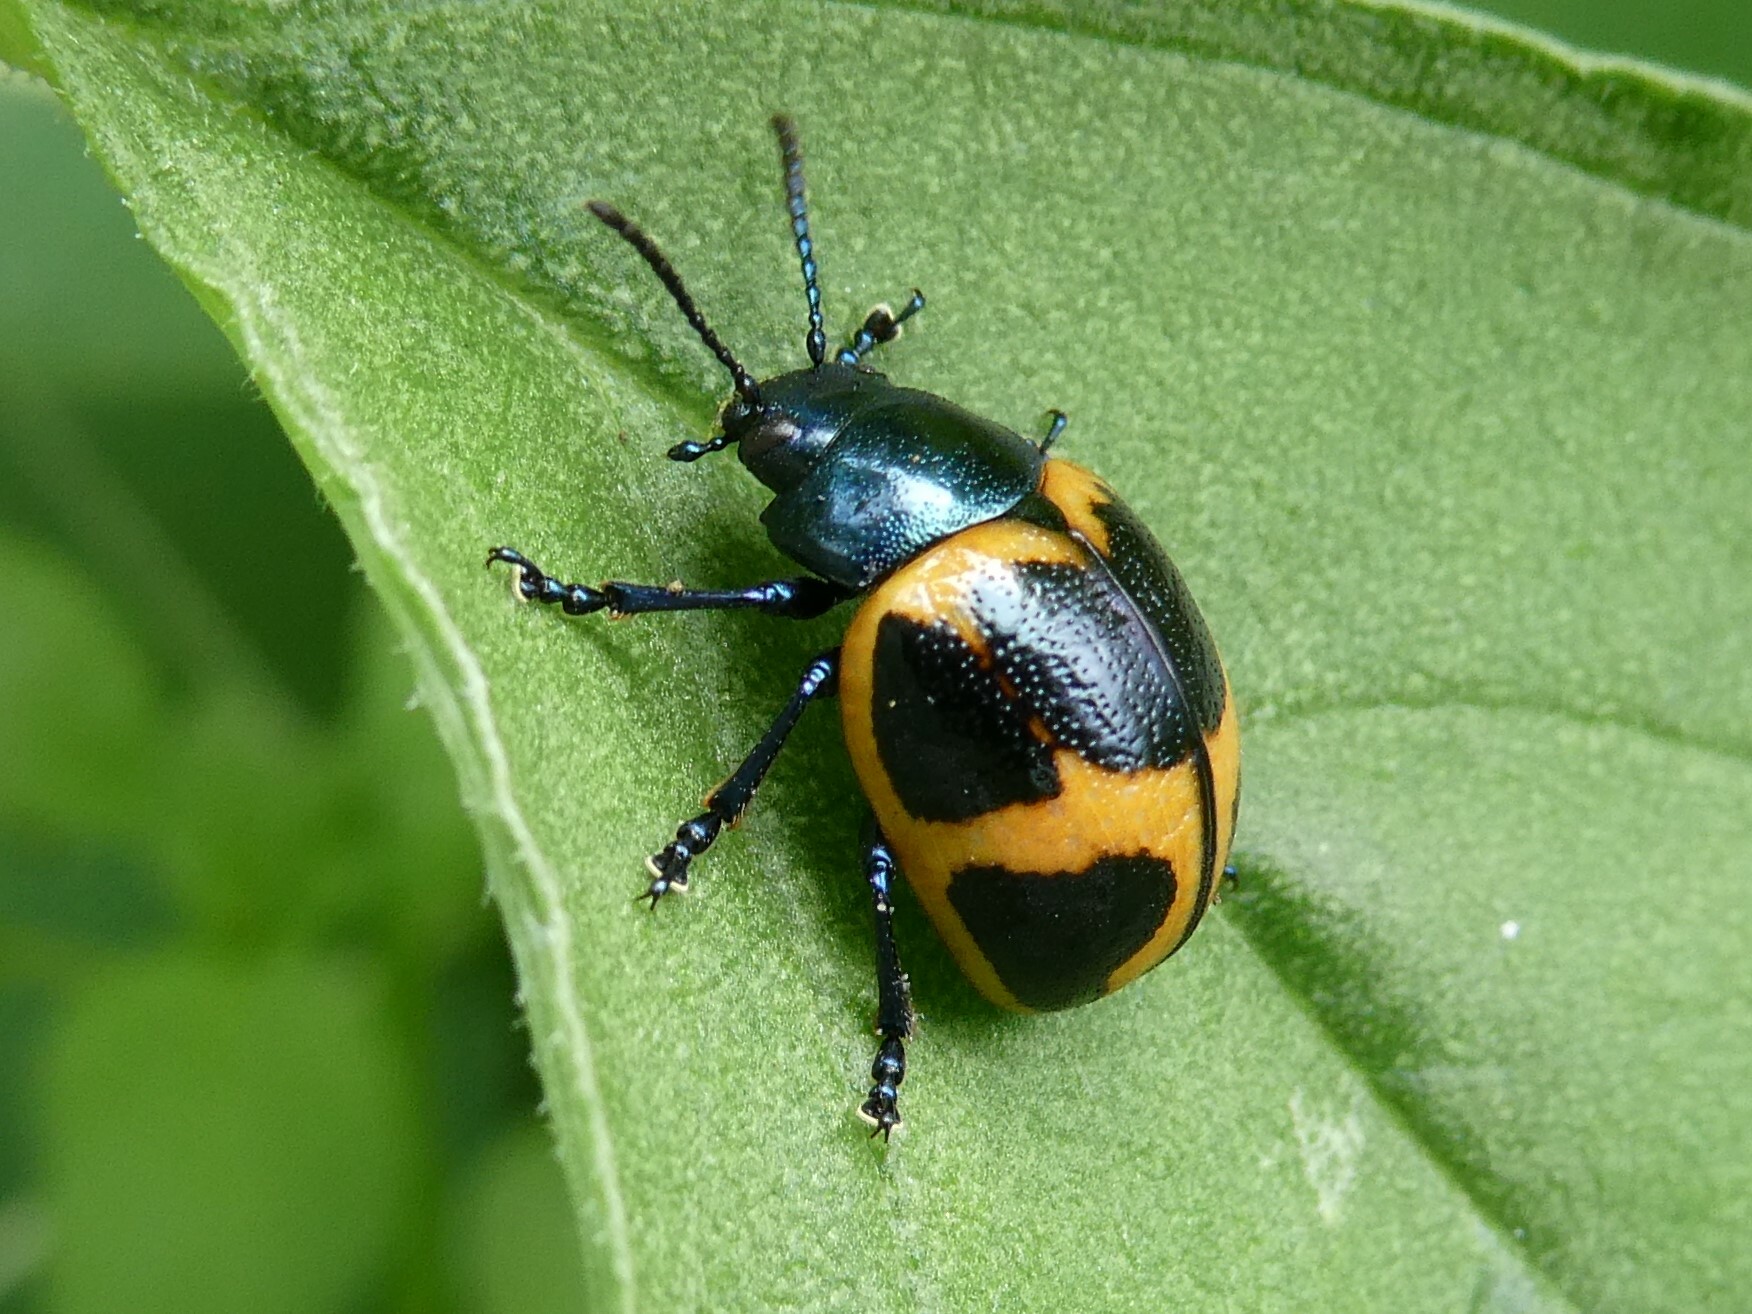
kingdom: Animalia
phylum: Arthropoda
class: Insecta
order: Coleoptera
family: Chrysomelidae
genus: Labidomera
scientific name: Labidomera clivicollis
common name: Swamp milkweed leaf beetle
